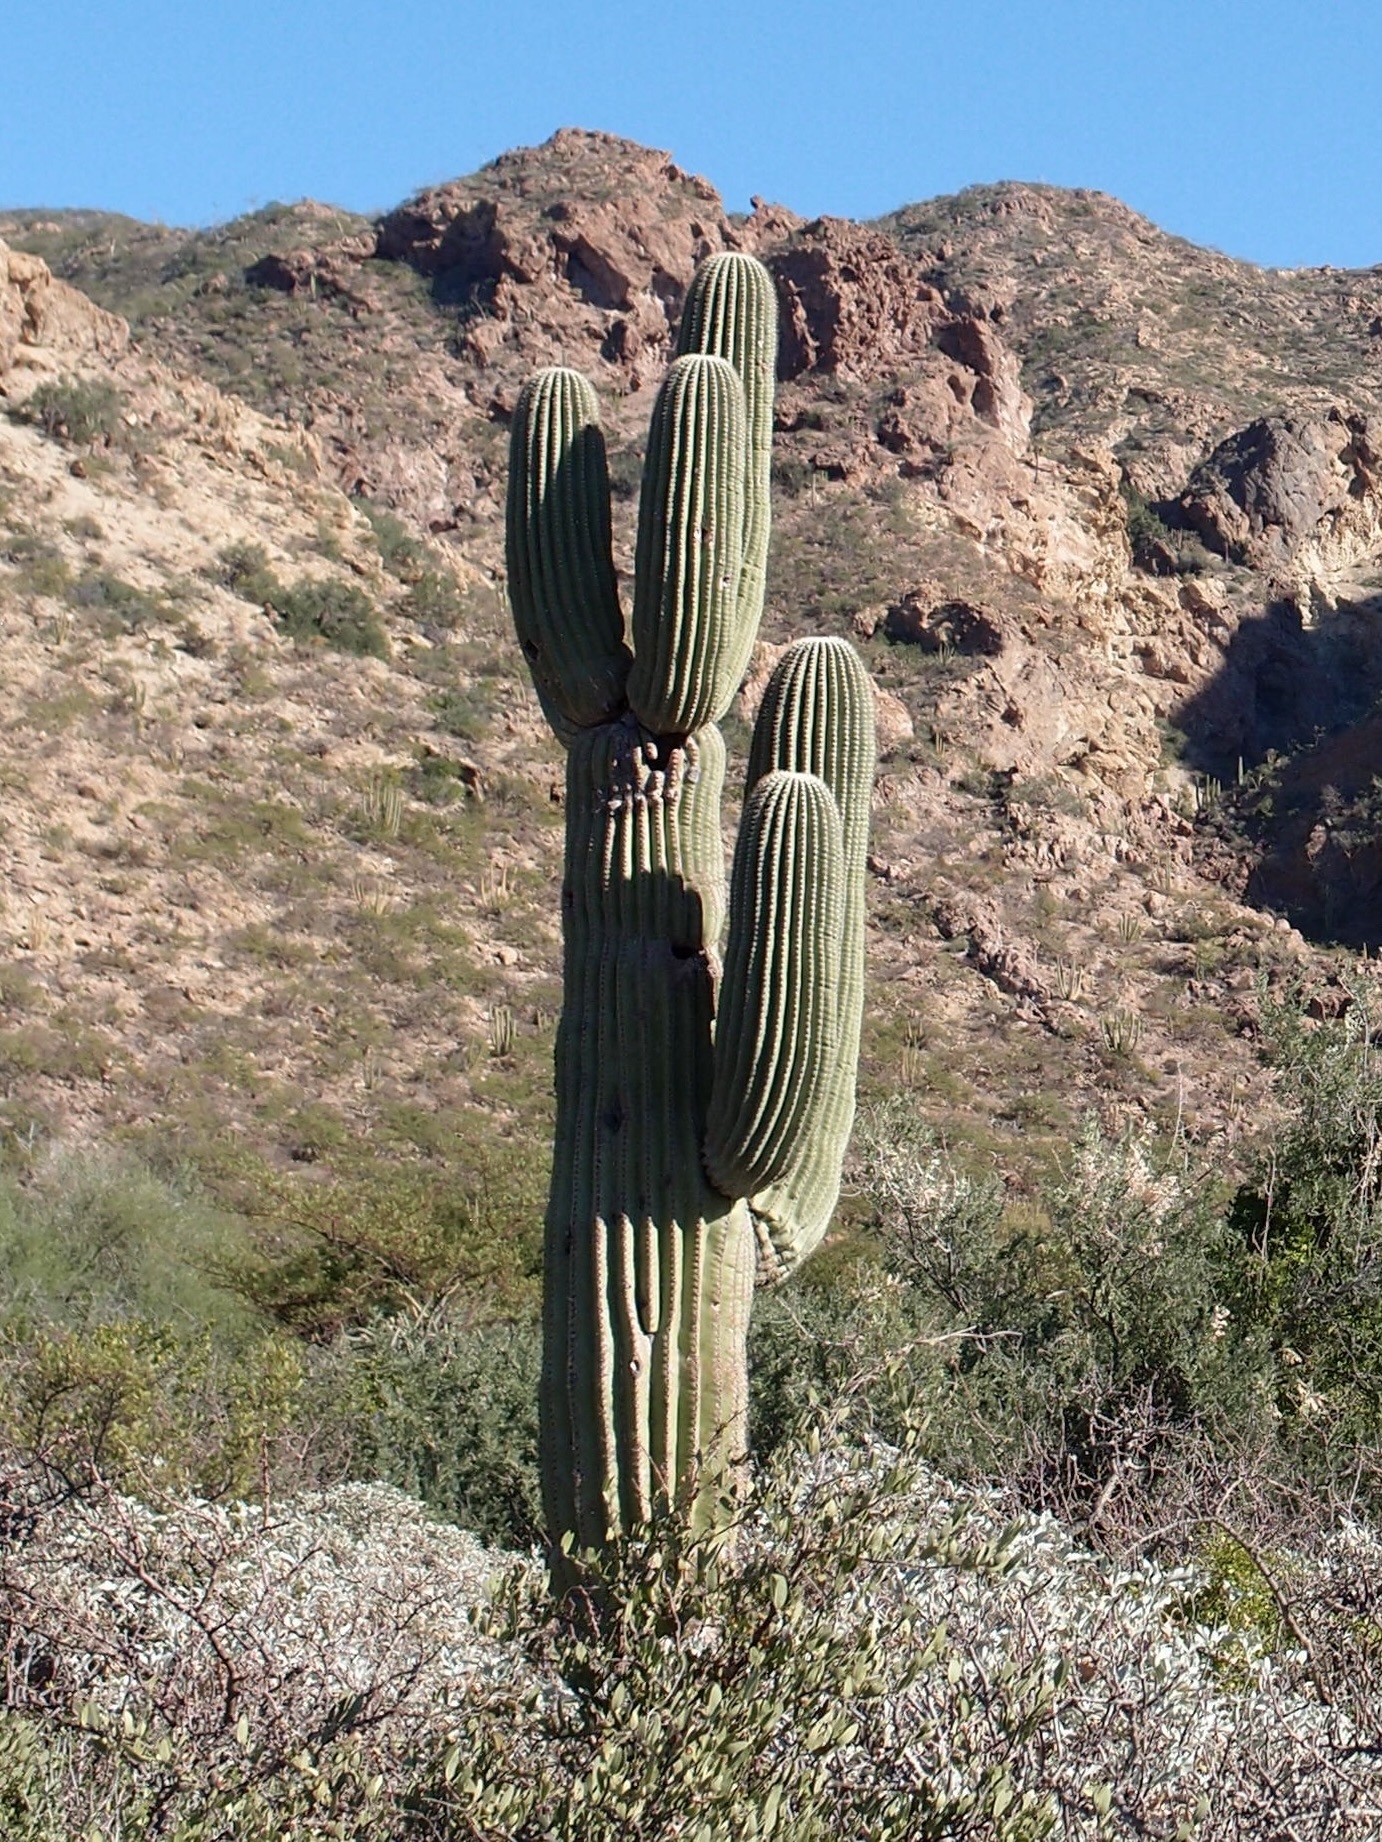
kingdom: Plantae
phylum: Tracheophyta
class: Magnoliopsida
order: Caryophyllales
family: Cactaceae
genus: Carnegiea
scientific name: Carnegiea gigantea
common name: Saguaro
